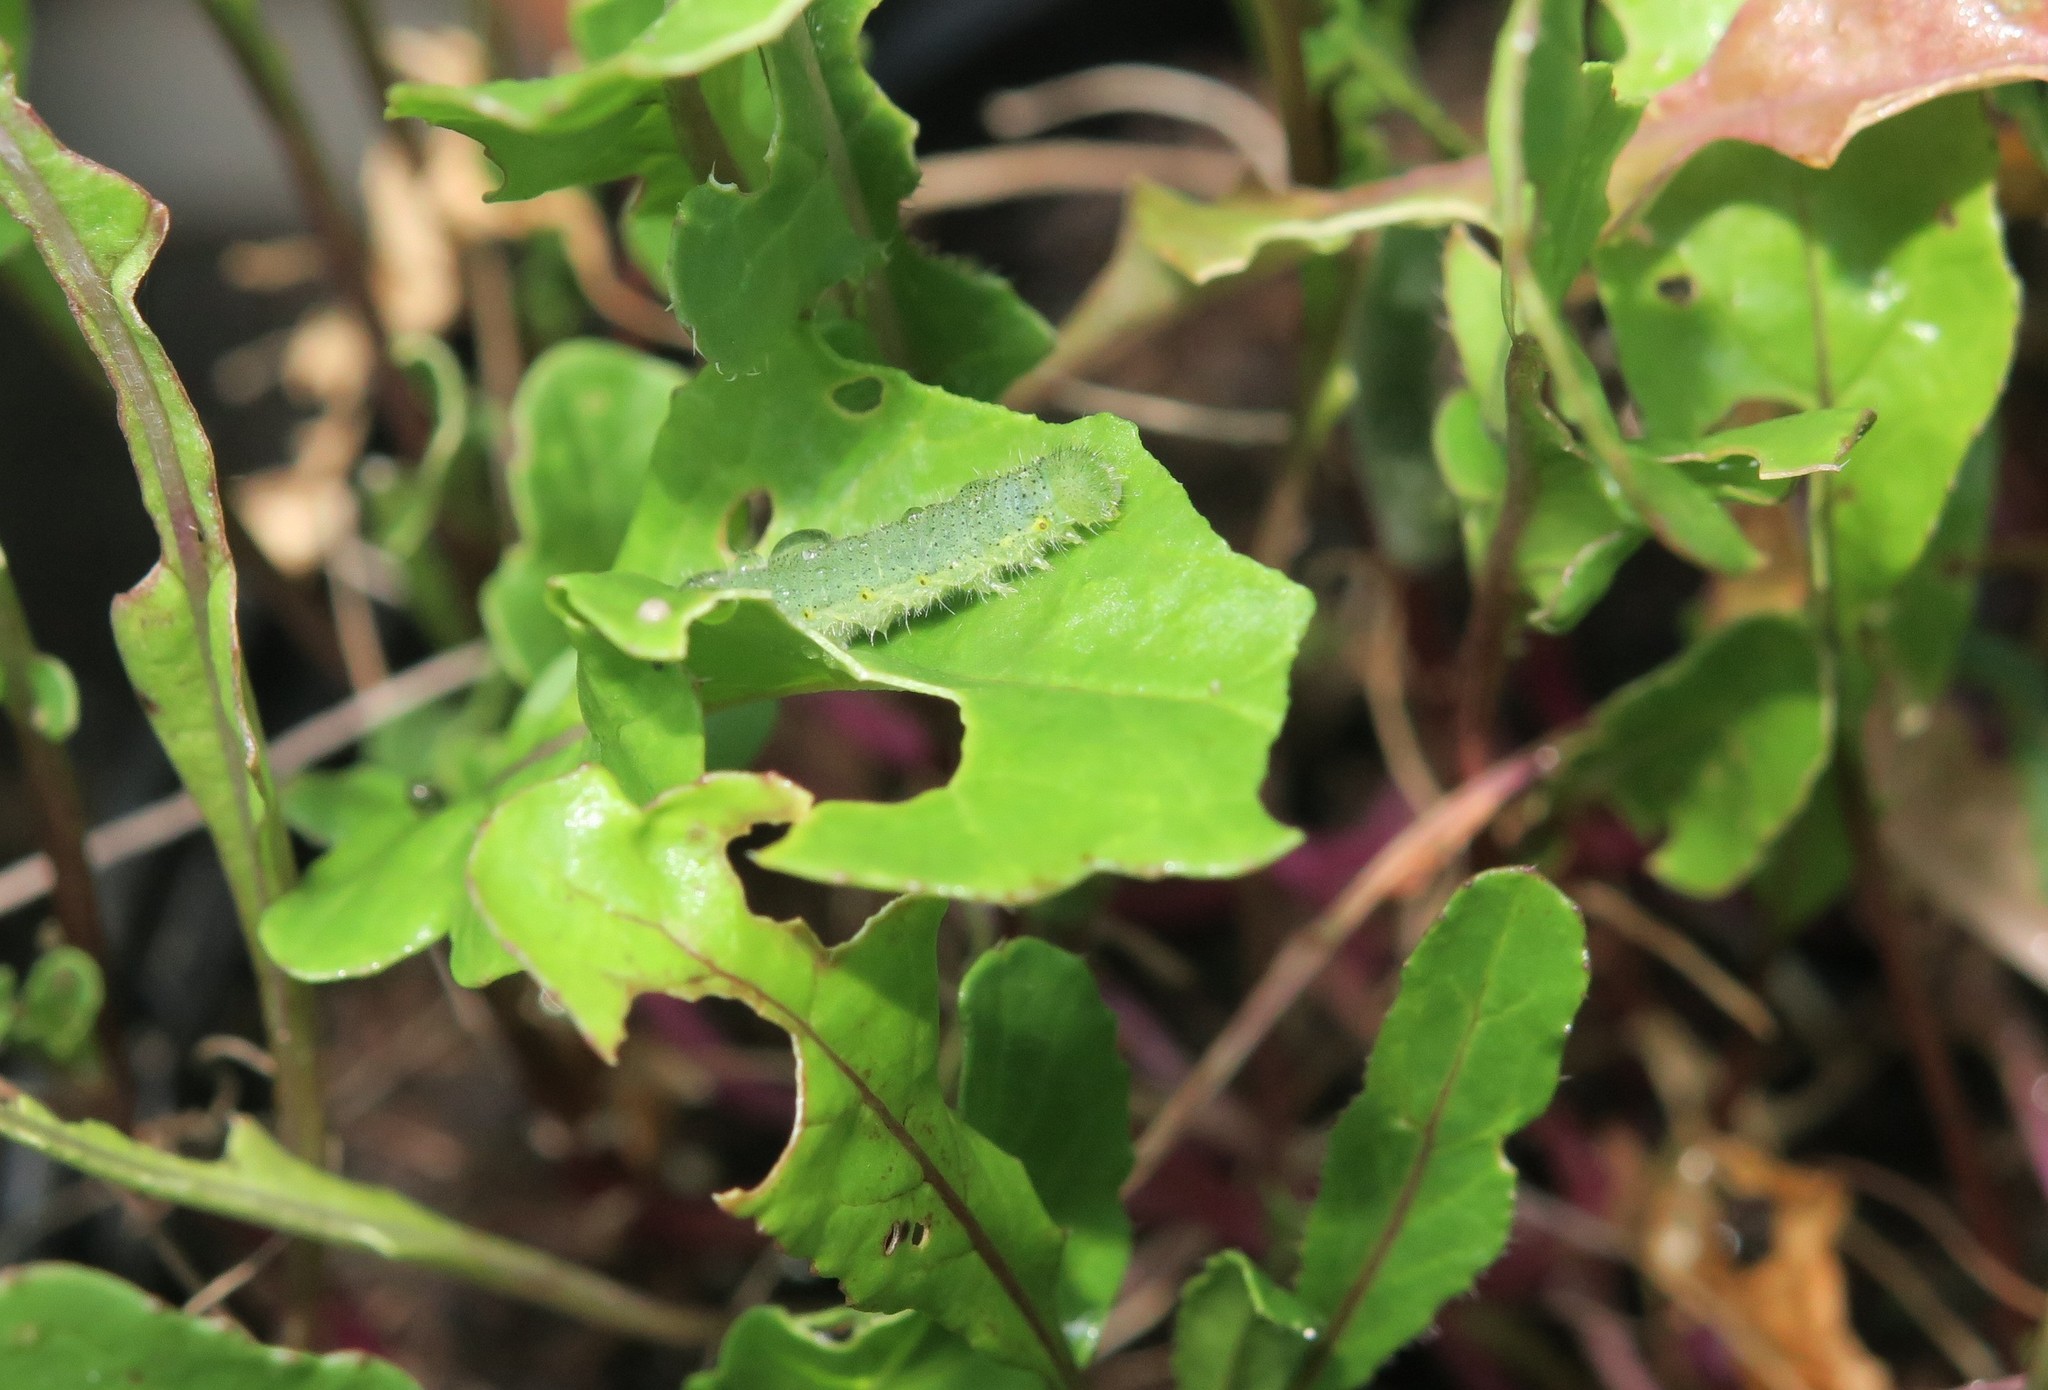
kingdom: Animalia
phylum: Arthropoda
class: Insecta
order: Lepidoptera
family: Pieridae
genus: Pieris
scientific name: Pieris napi
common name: Green-veined white
